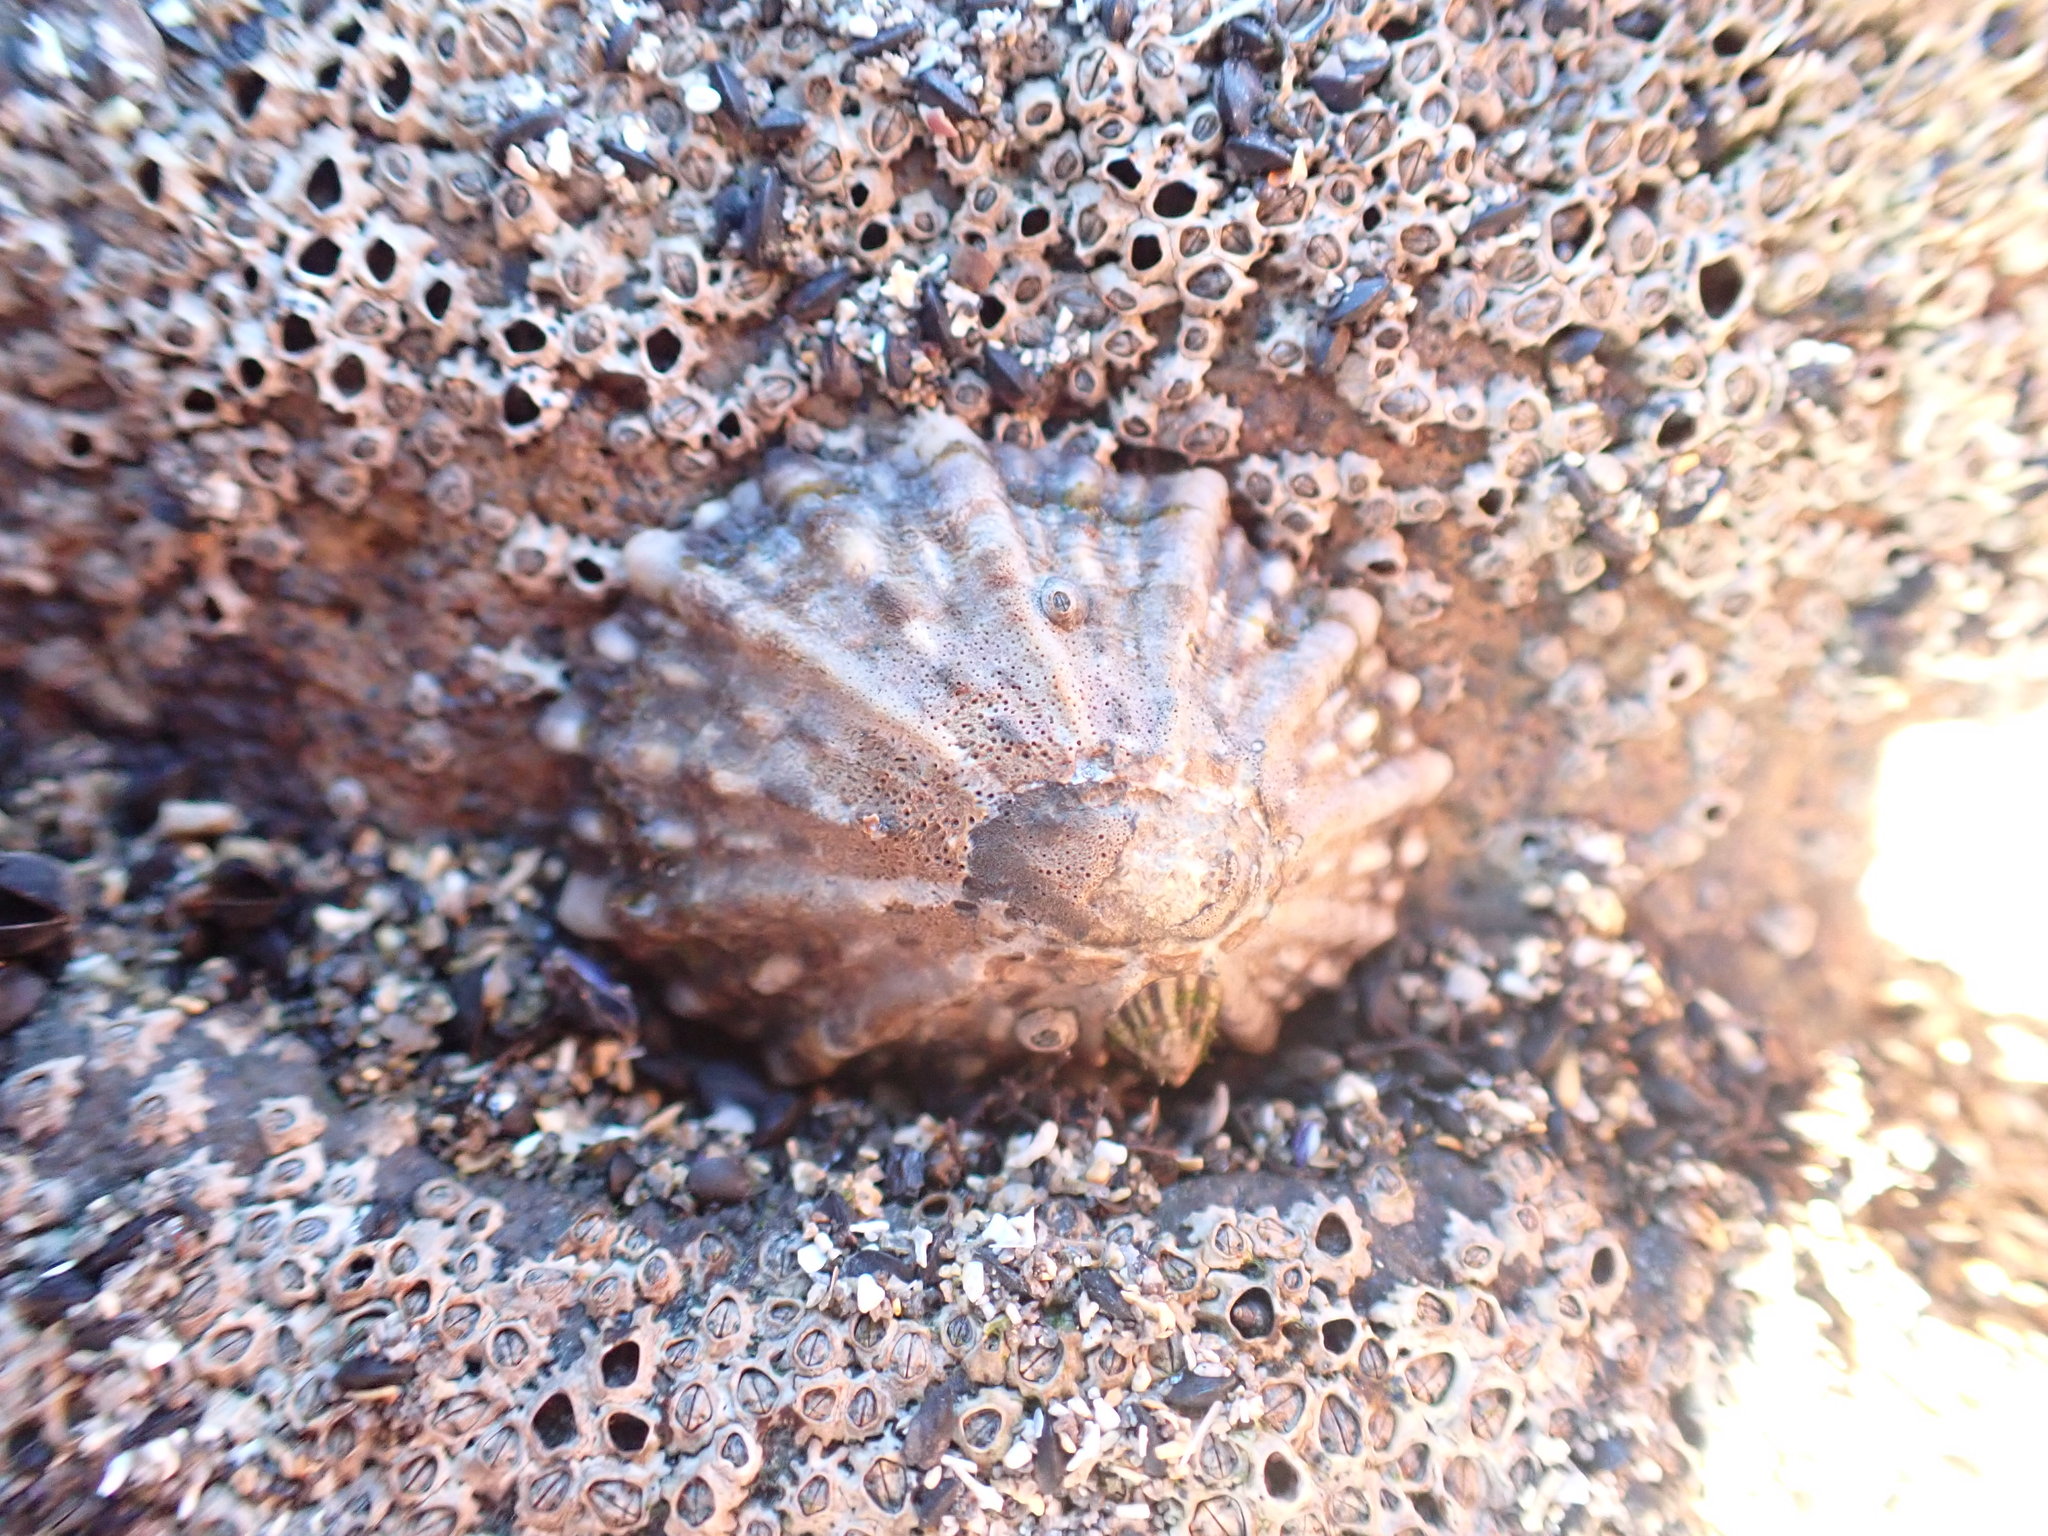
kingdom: Animalia
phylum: Mollusca
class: Gastropoda
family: Nacellidae
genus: Cellana
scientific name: Cellana ornata
